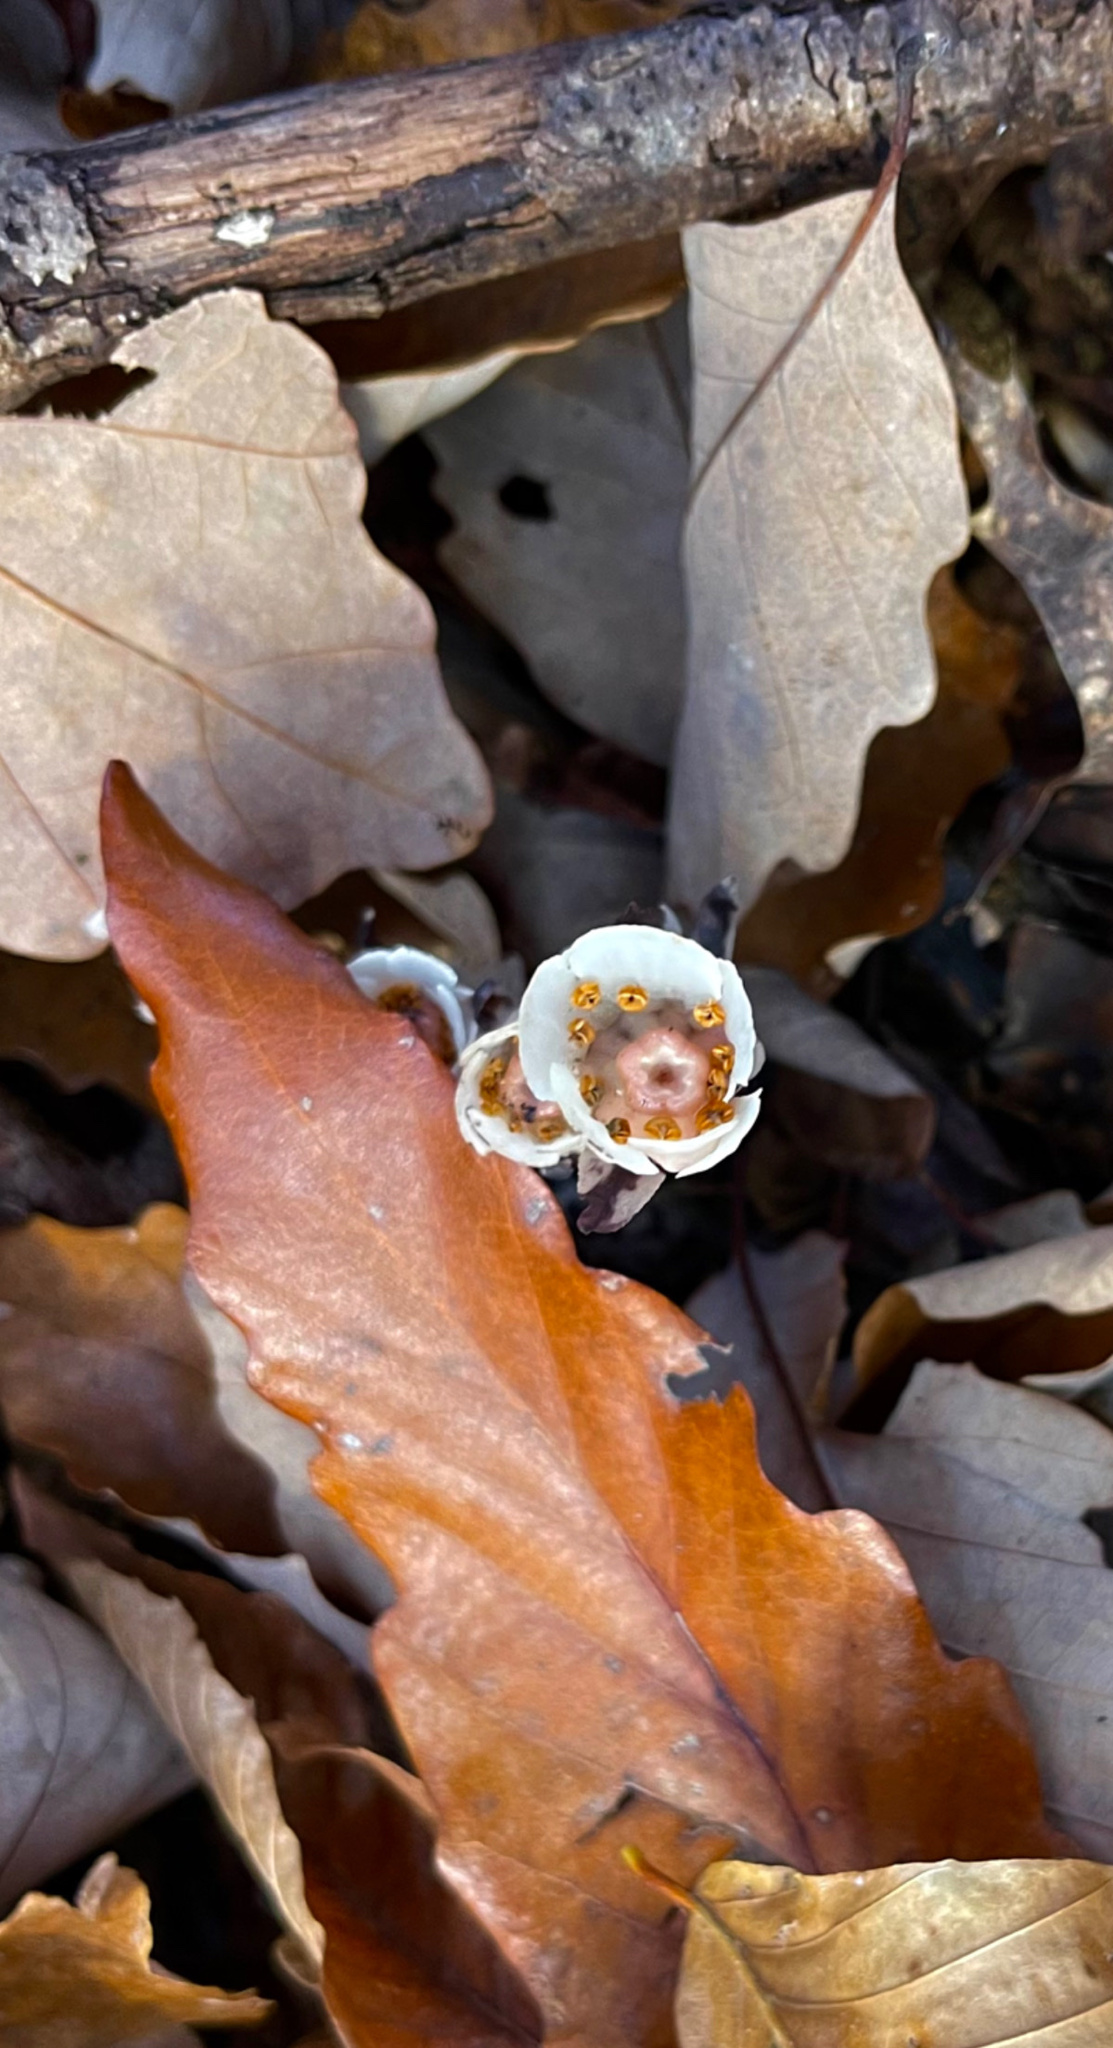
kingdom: Plantae
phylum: Tracheophyta
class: Magnoliopsida
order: Ericales
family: Ericaceae
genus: Monotropa
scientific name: Monotropa uniflora
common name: Convulsion root
